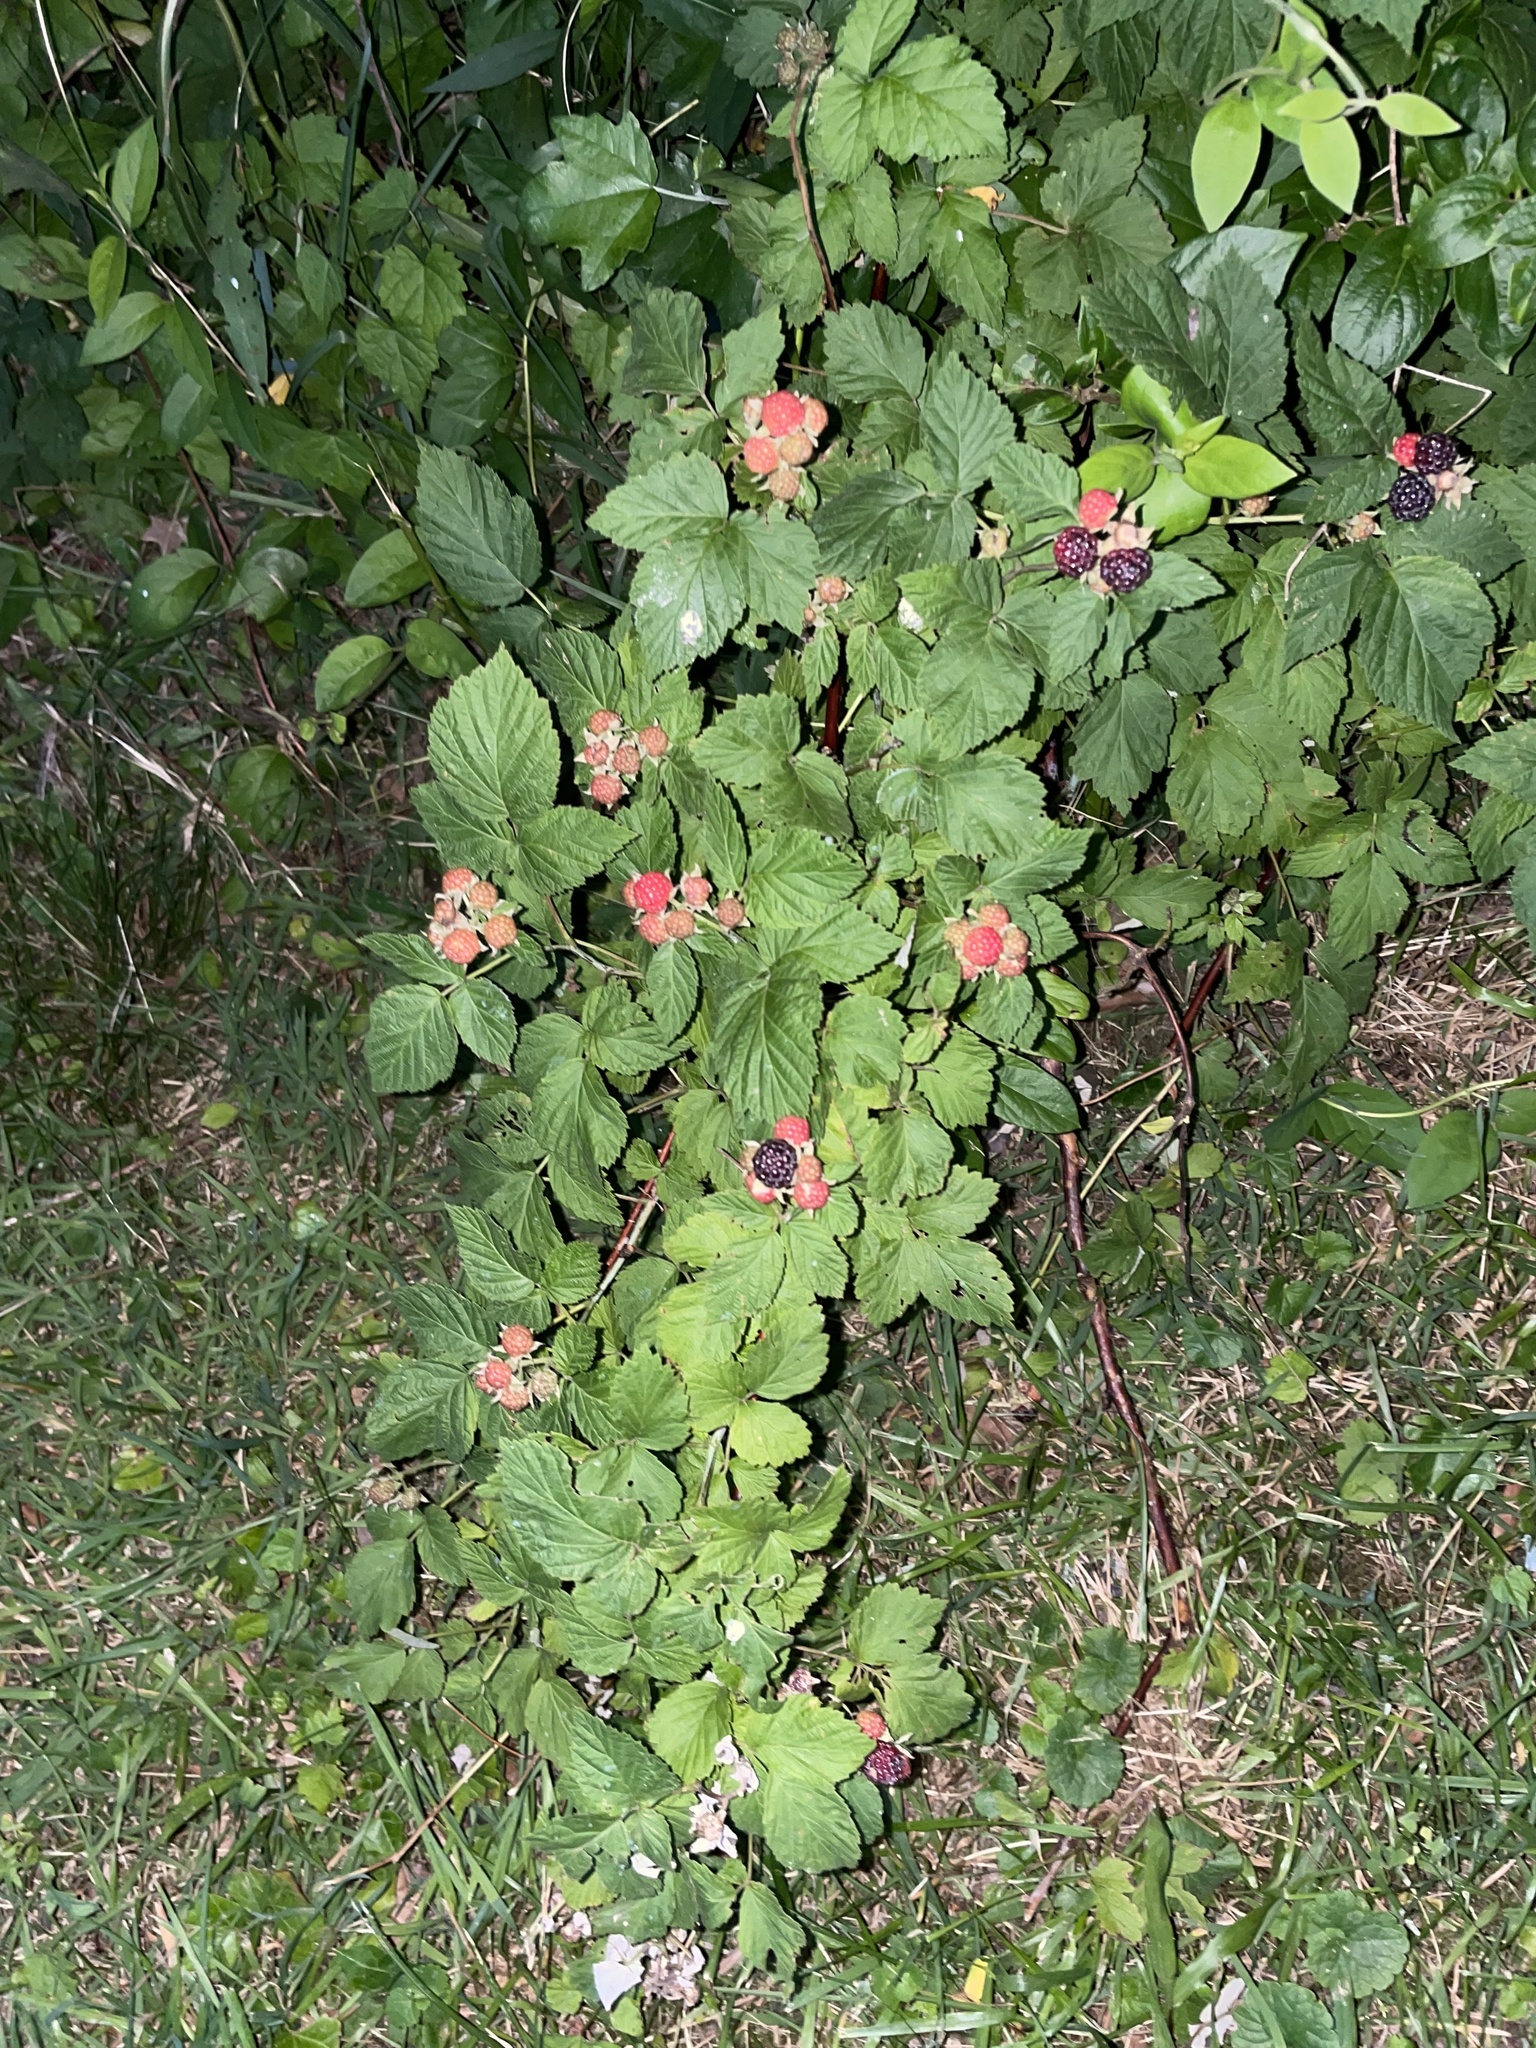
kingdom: Plantae
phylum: Tracheophyta
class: Magnoliopsida
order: Rosales
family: Rosaceae
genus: Rubus
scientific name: Rubus occidentalis
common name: Black raspberry
